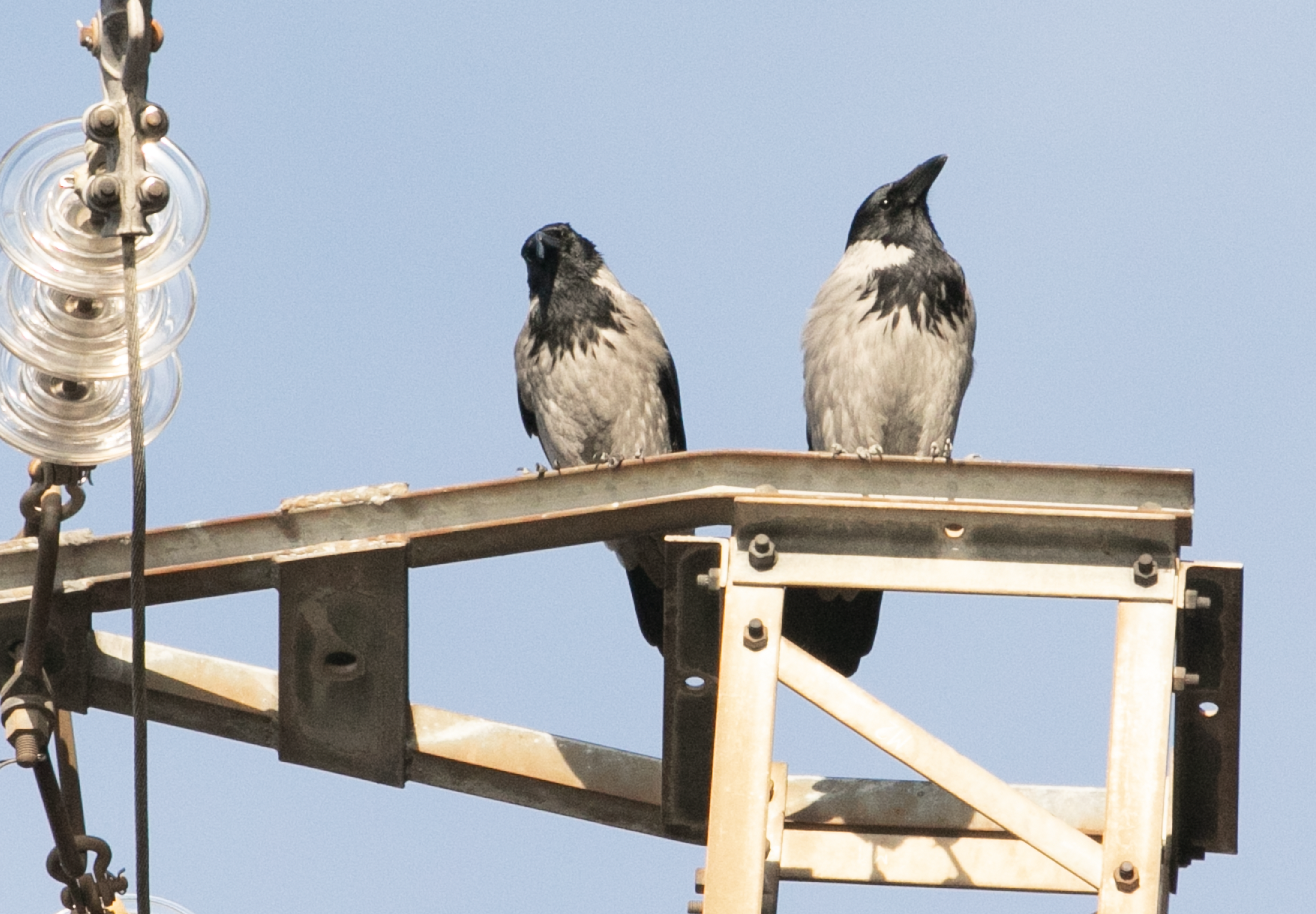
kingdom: Animalia
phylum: Chordata
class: Aves
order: Passeriformes
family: Corvidae
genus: Corvus
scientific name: Corvus cornix
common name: Hooded crow
